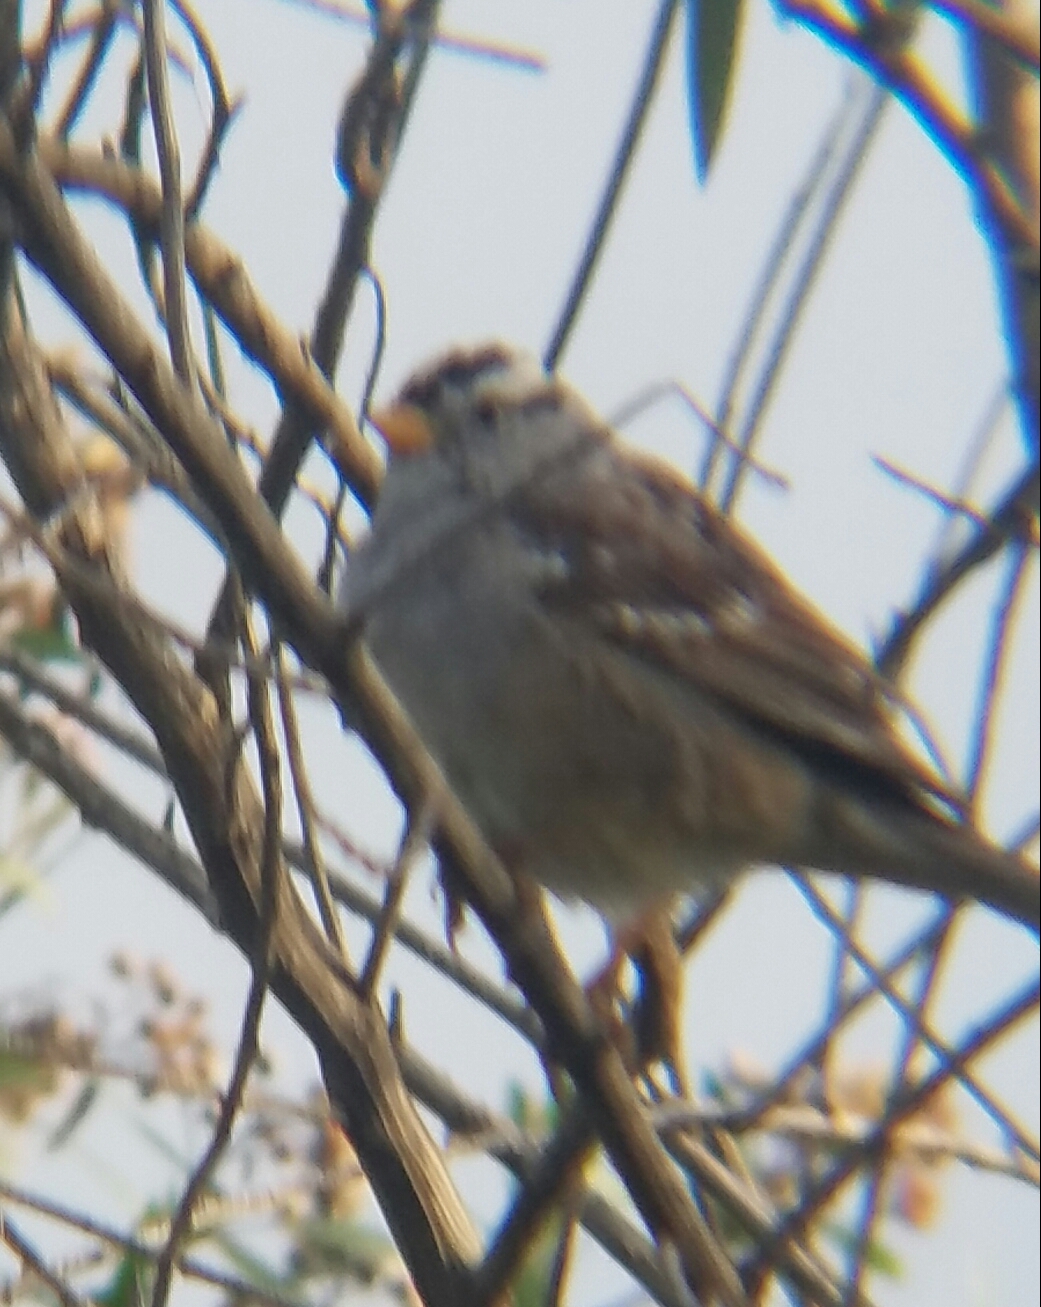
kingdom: Animalia
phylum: Chordata
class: Aves
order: Passeriformes
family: Passerellidae
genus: Zonotrichia
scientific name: Zonotrichia leucophrys
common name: White-crowned sparrow
